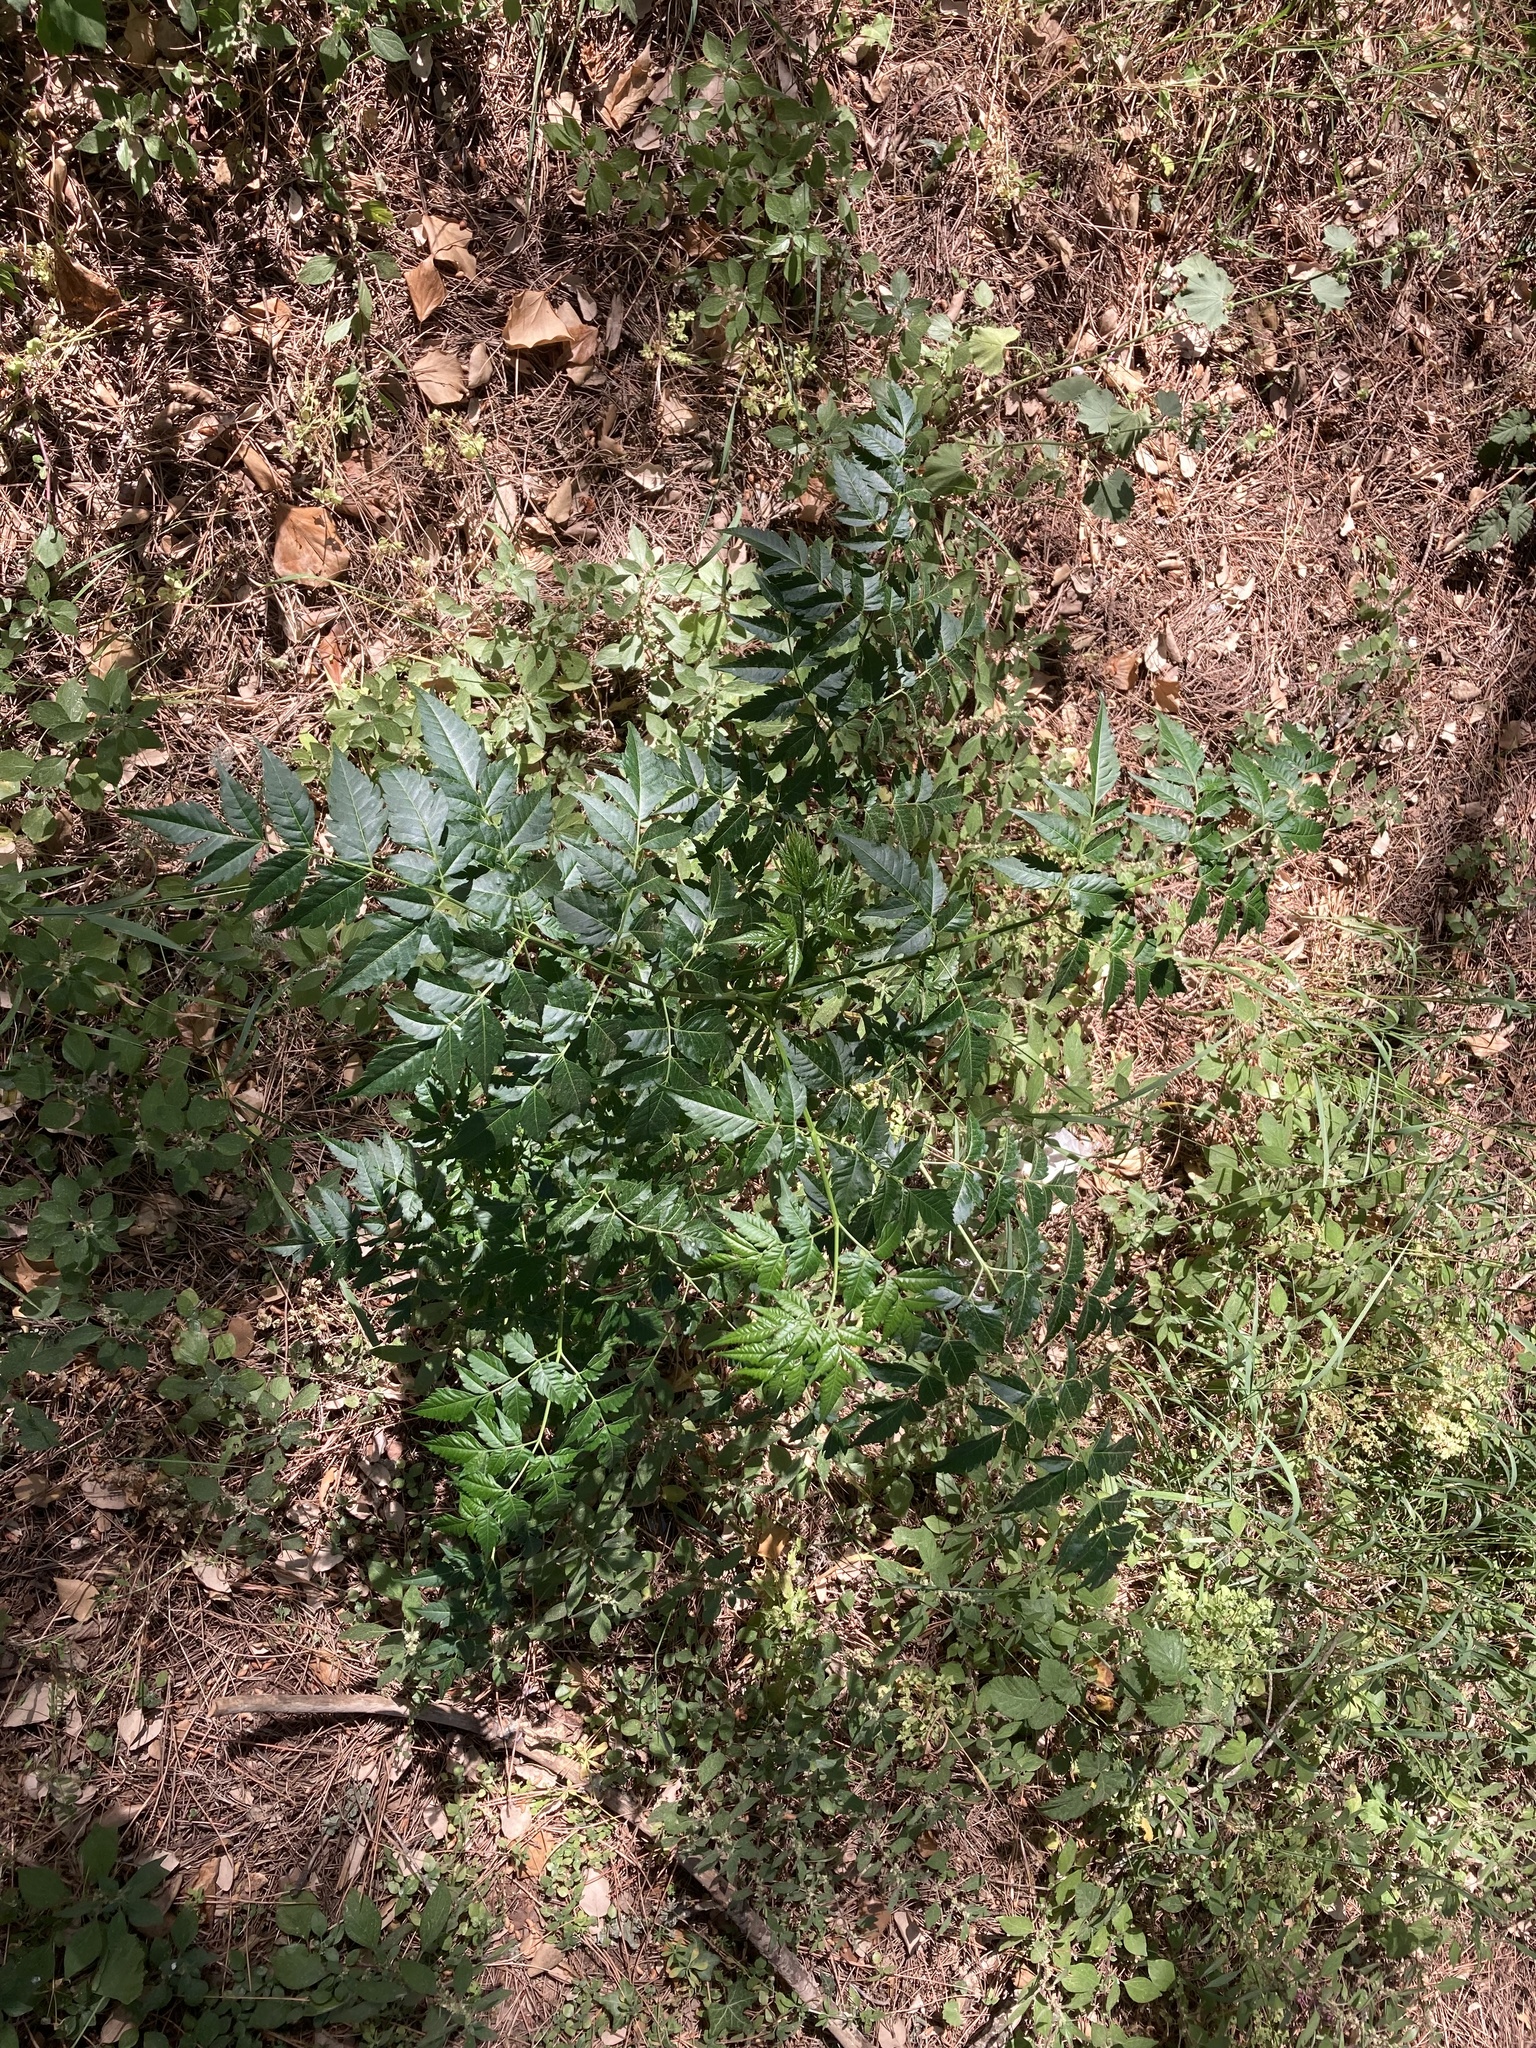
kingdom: Plantae
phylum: Tracheophyta
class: Magnoliopsida
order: Sapindales
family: Meliaceae
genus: Melia
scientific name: Melia azedarach
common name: Chinaberrytree
